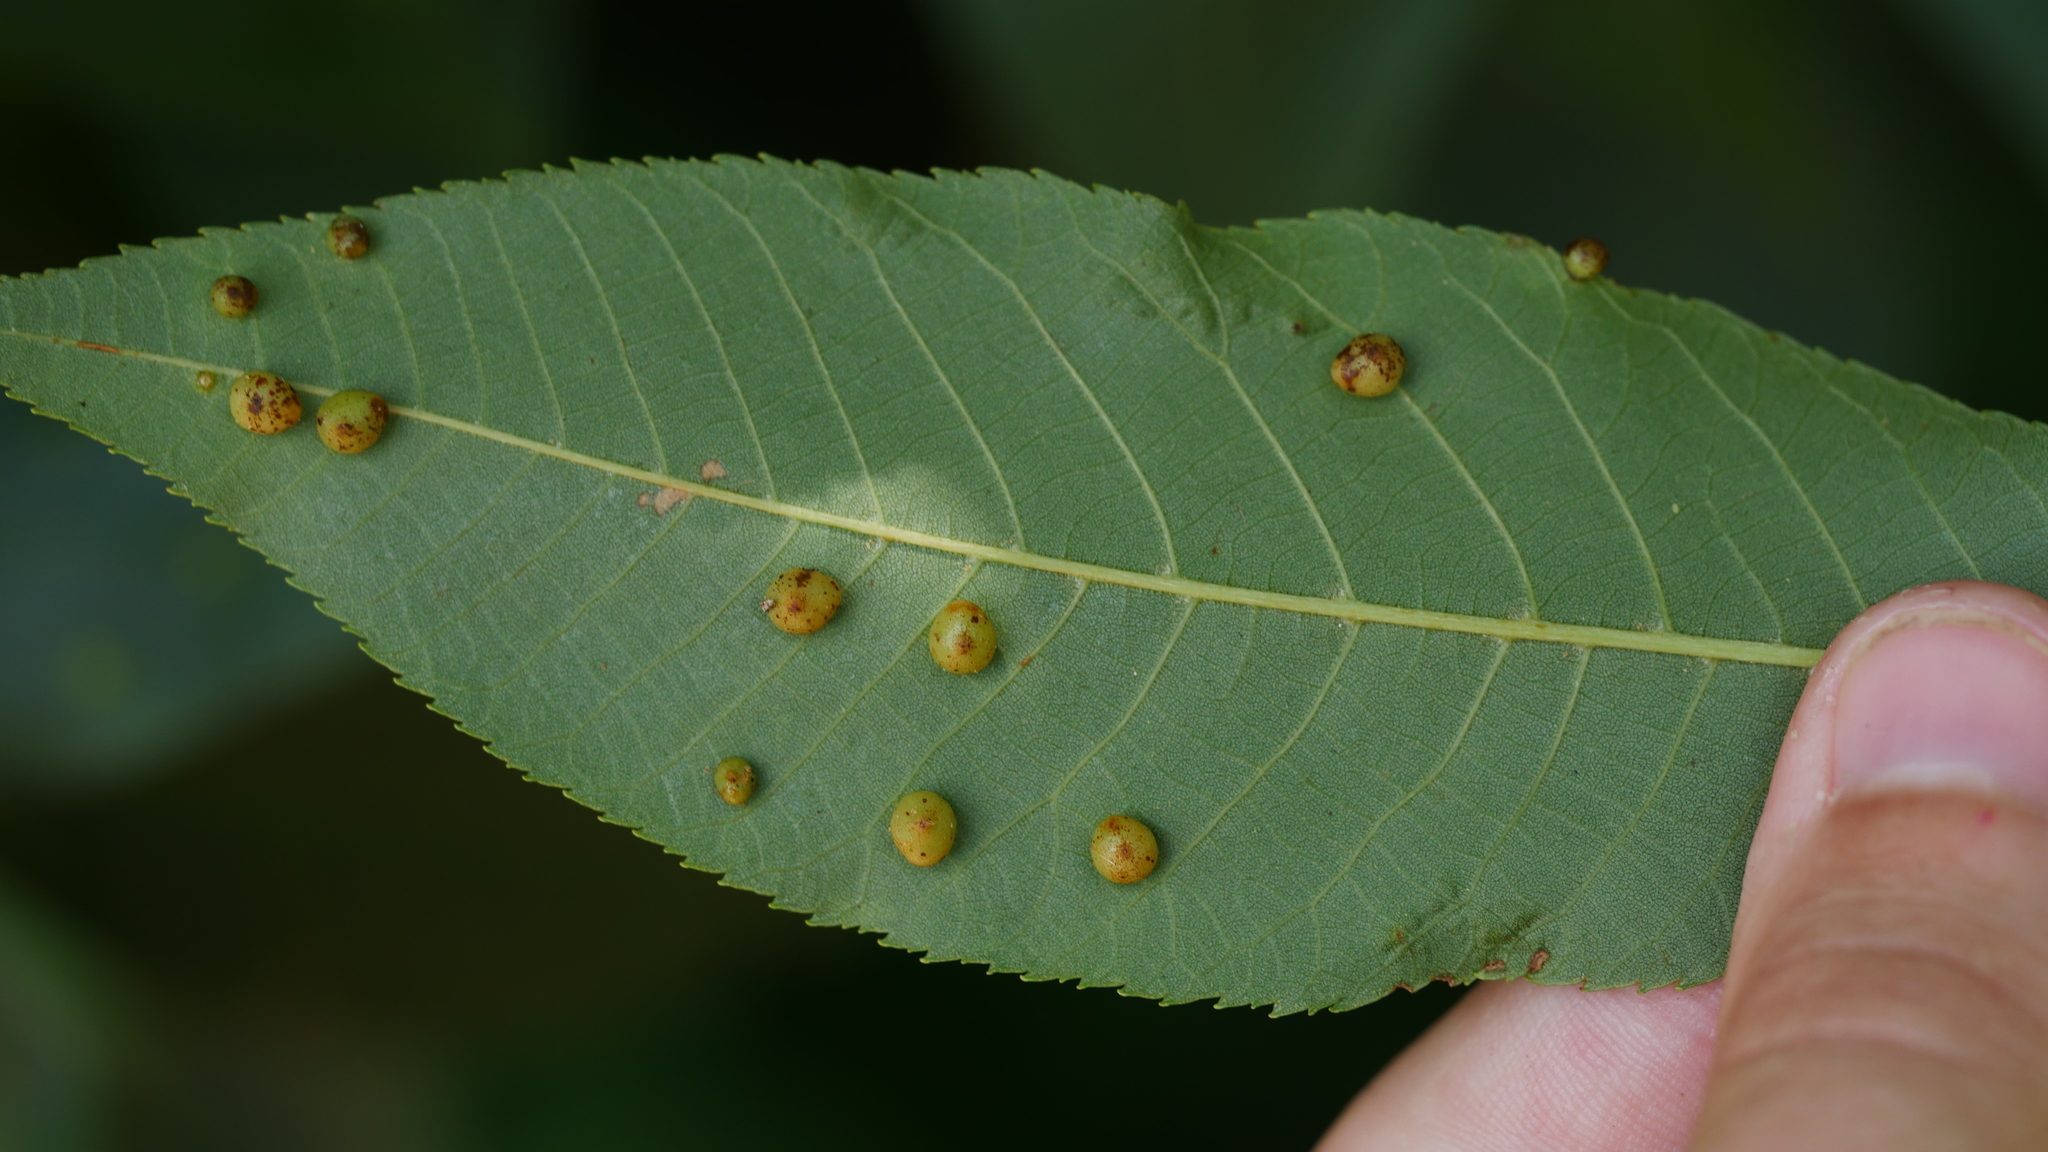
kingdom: Animalia
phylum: Arthropoda
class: Insecta
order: Diptera
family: Cecidomyiidae
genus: Caryomyia
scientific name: Caryomyia caryae
